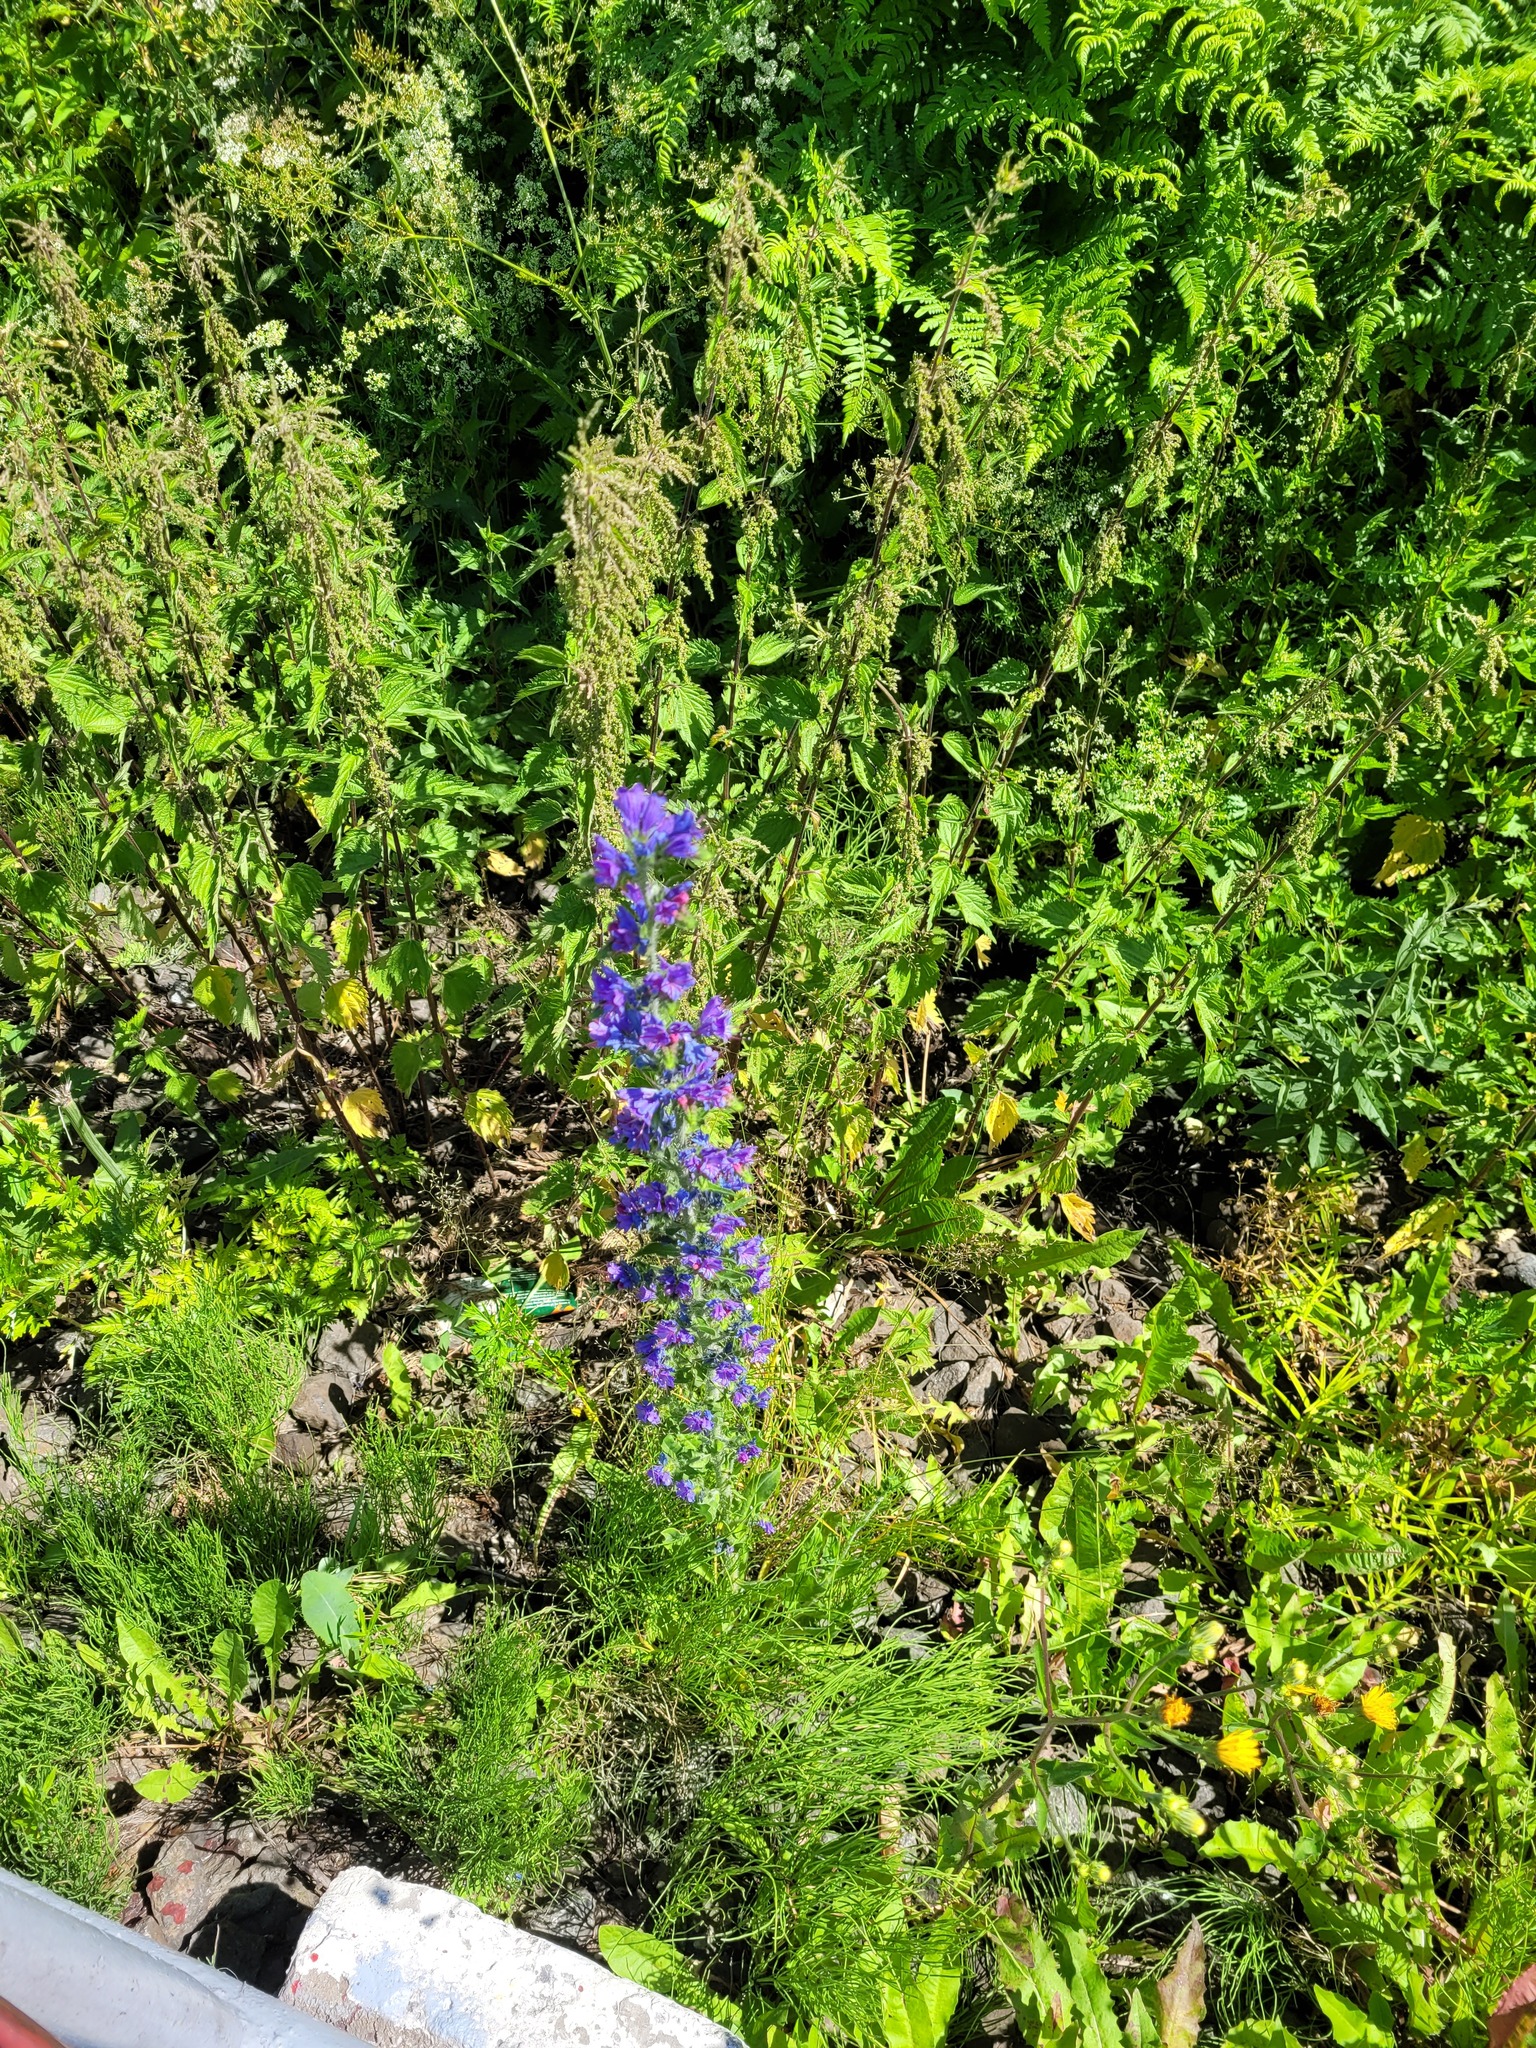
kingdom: Plantae
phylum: Tracheophyta
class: Magnoliopsida
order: Boraginales
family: Boraginaceae
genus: Echium
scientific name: Echium vulgare
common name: Common viper's bugloss
